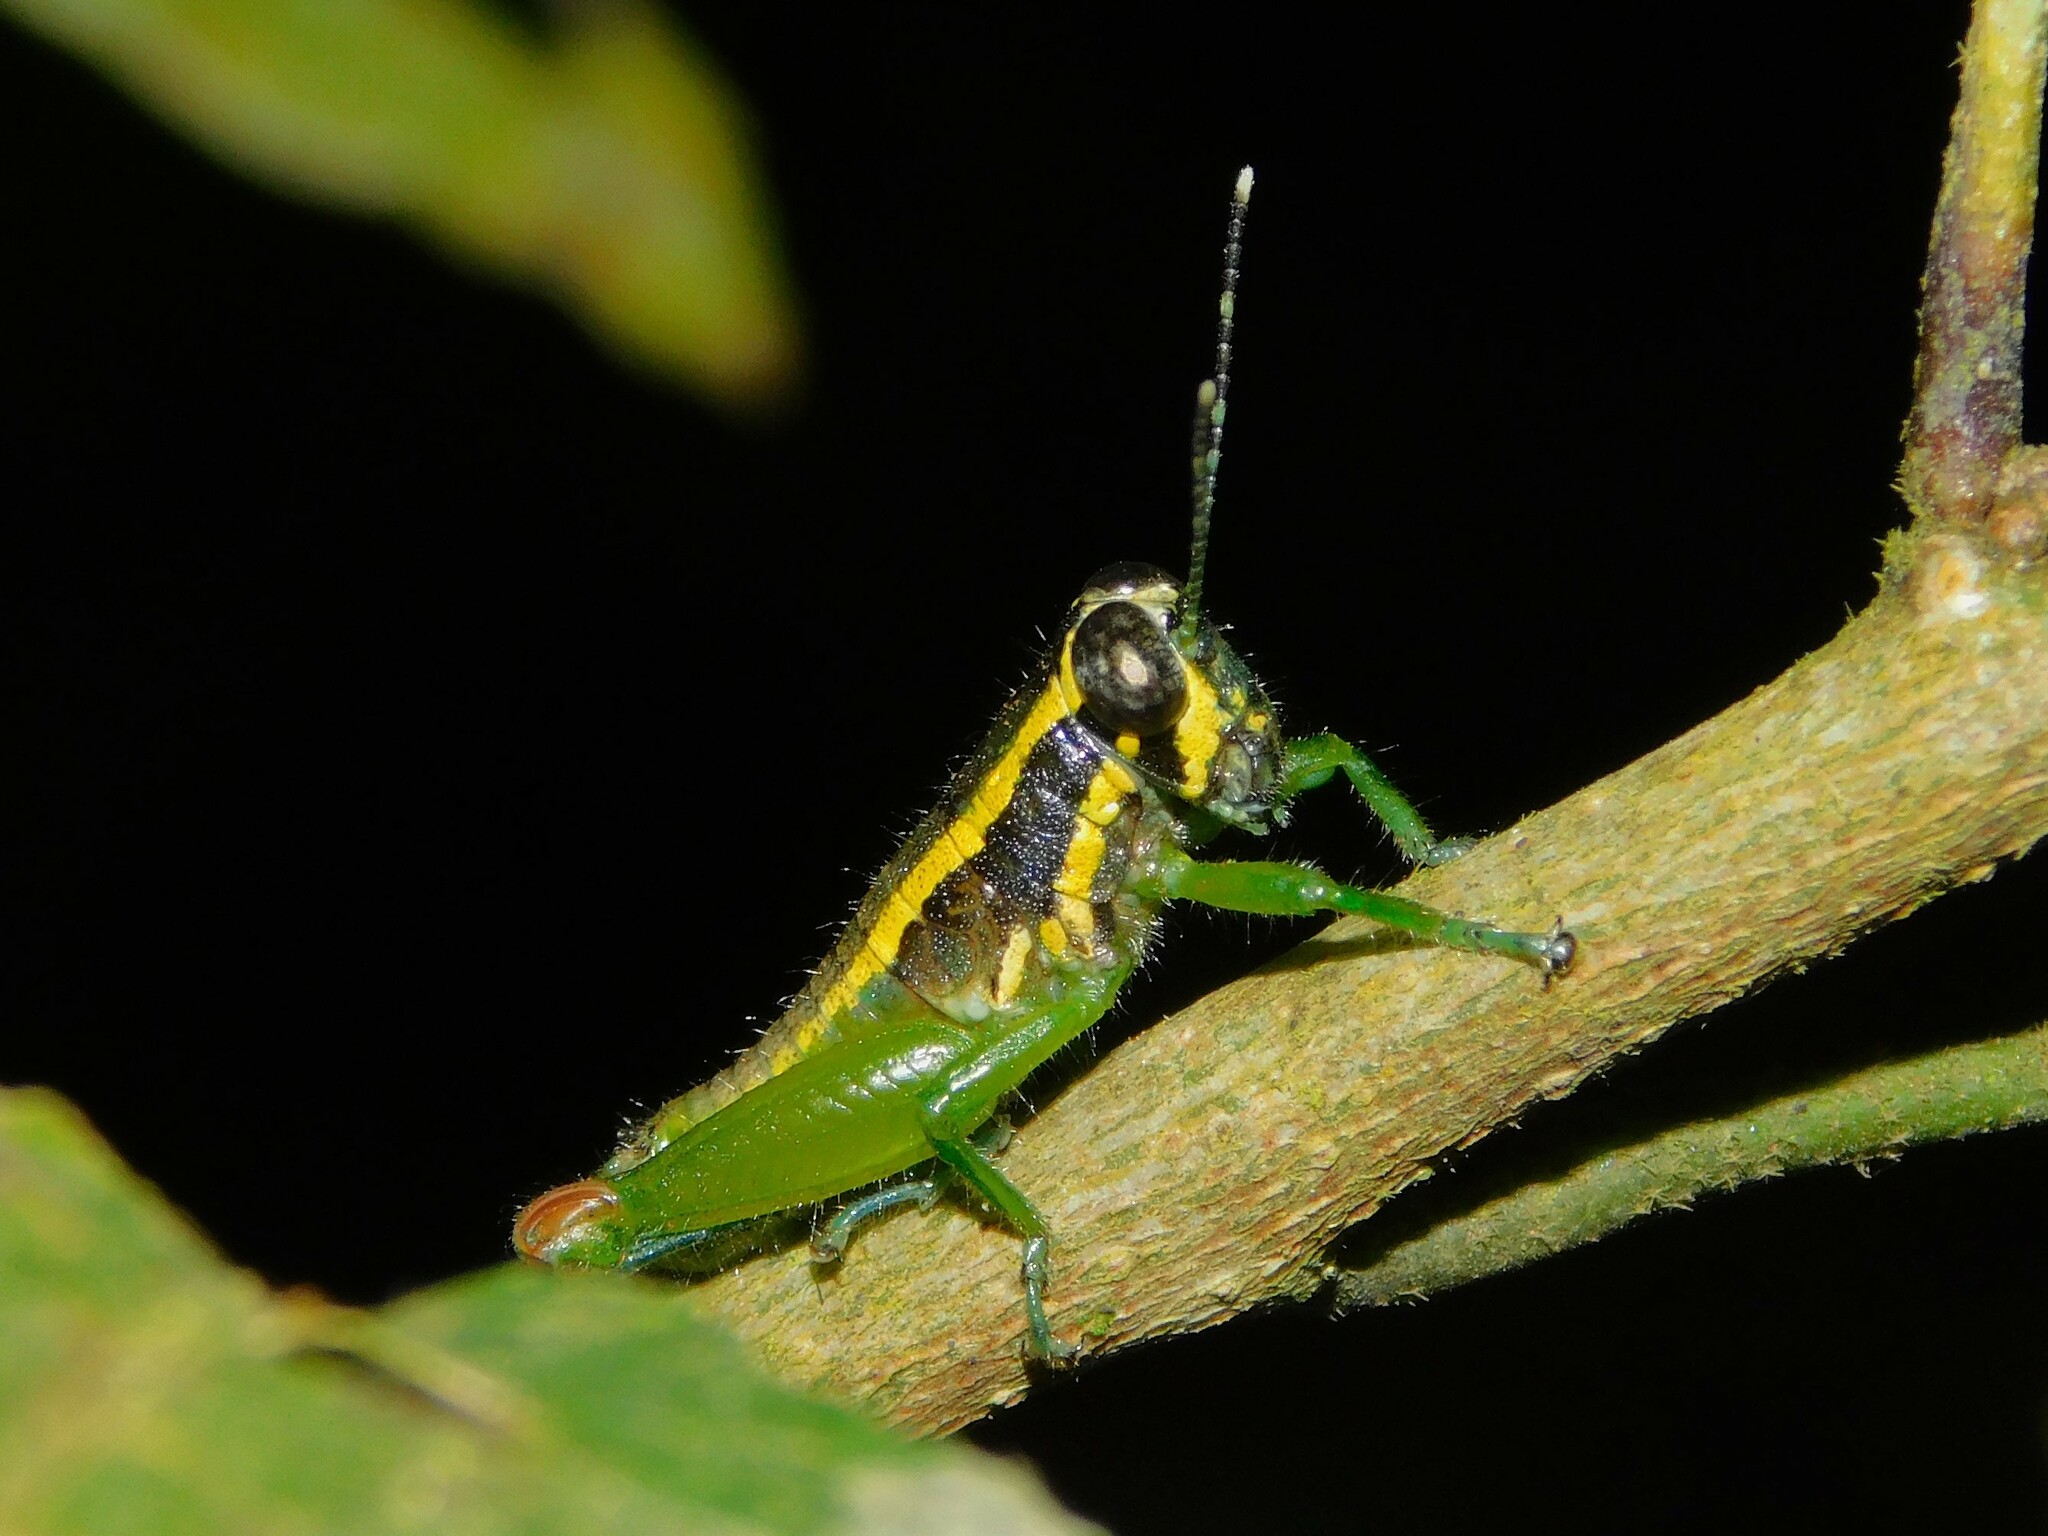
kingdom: Animalia
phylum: Arthropoda
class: Insecta
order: Orthoptera
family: Lentulidae
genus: Usambilla
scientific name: Usambilla sagonai
